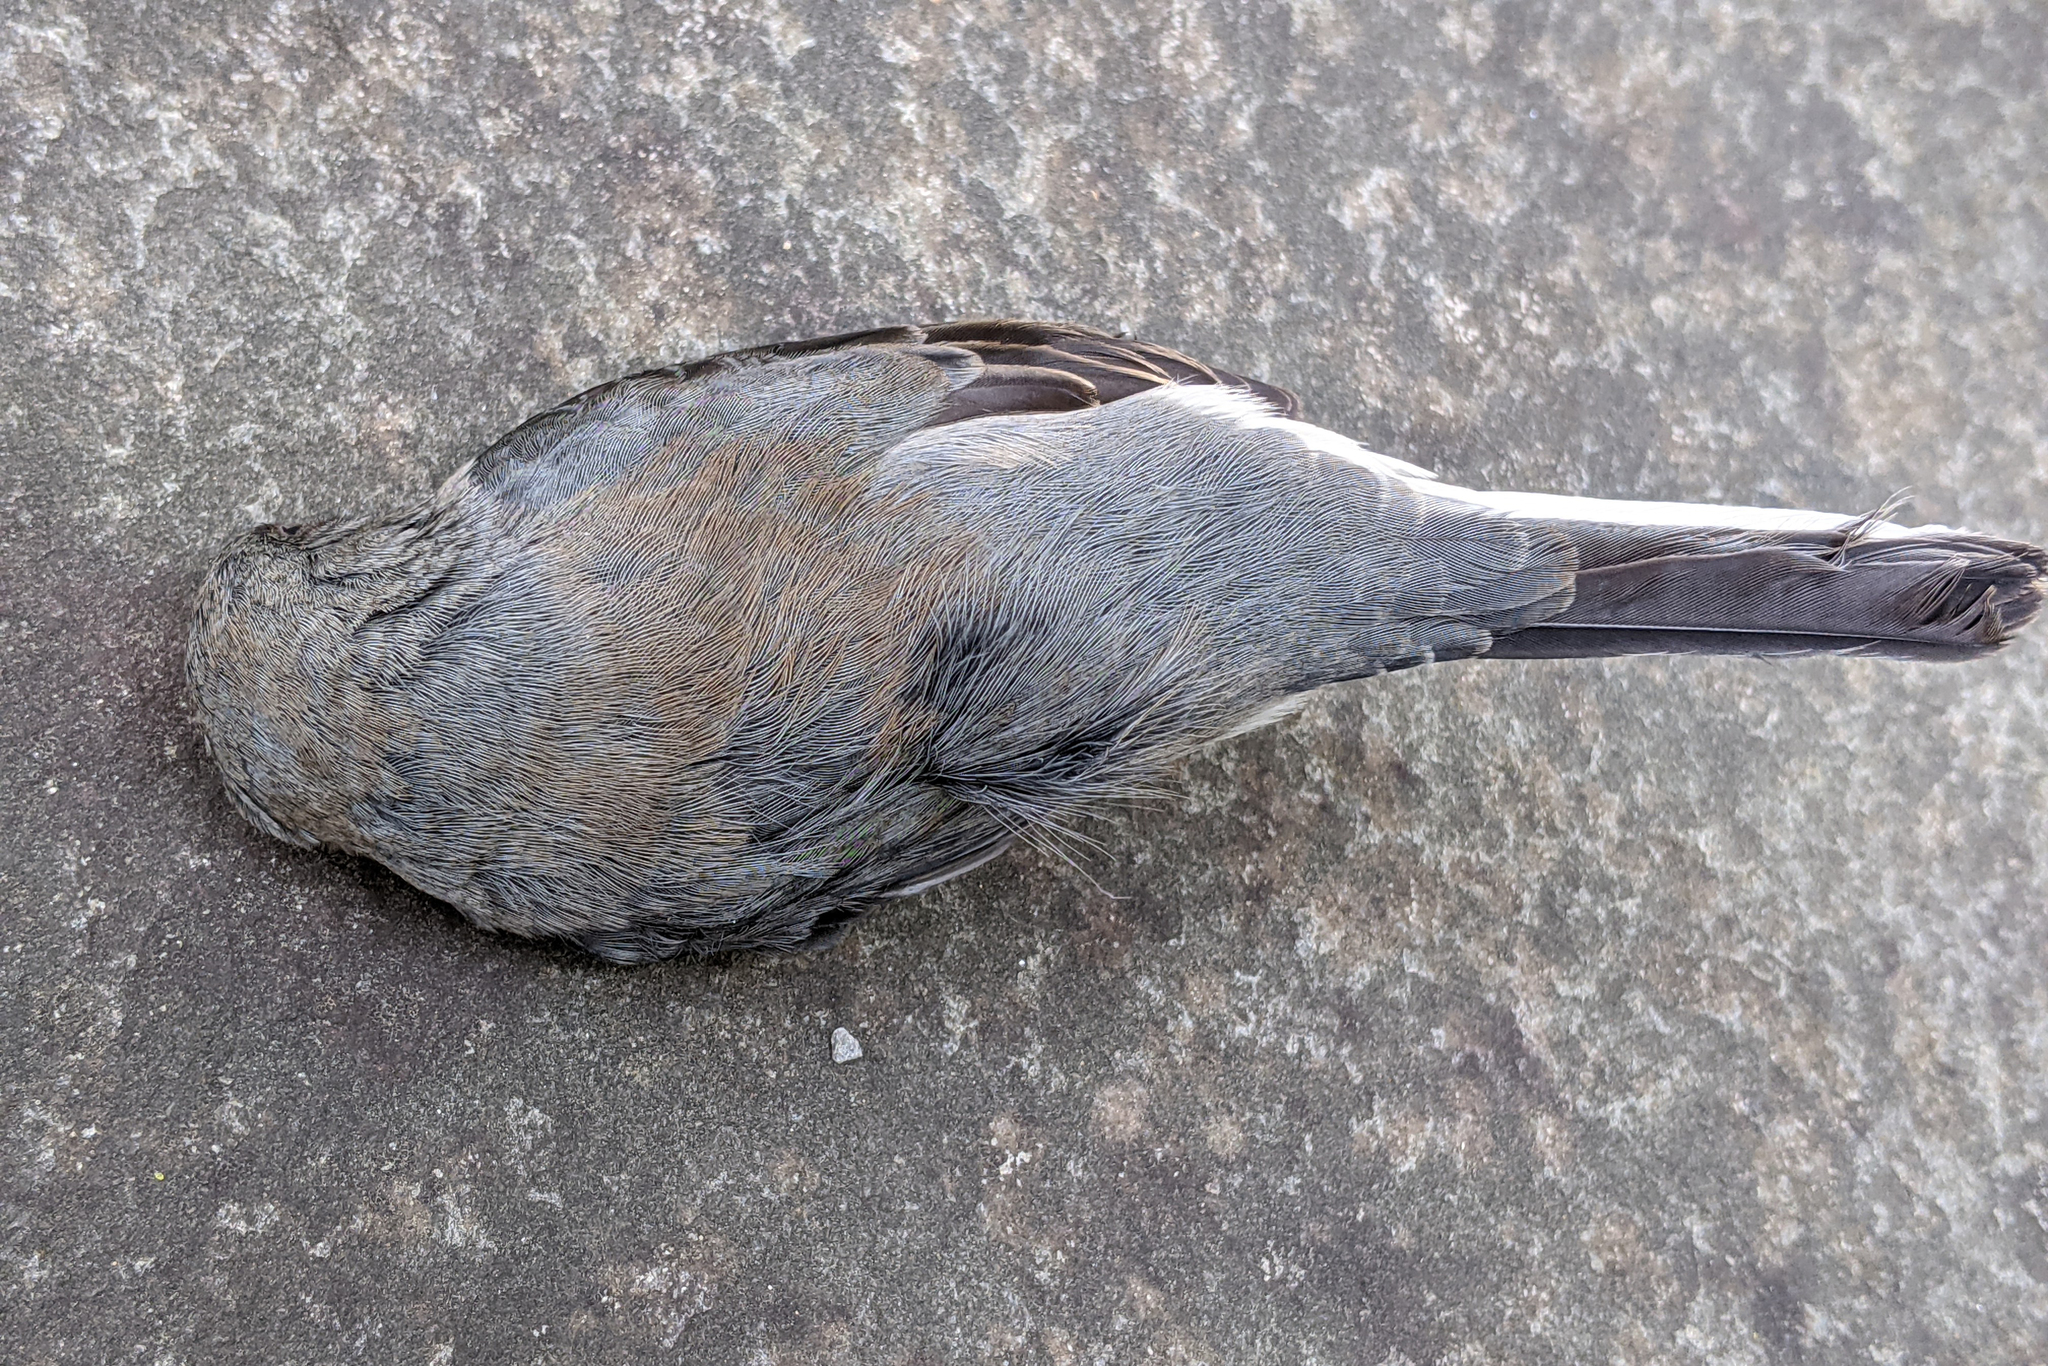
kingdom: Animalia
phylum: Chordata
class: Aves
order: Passeriformes
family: Passerellidae
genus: Junco
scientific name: Junco hyemalis
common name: Dark-eyed junco
